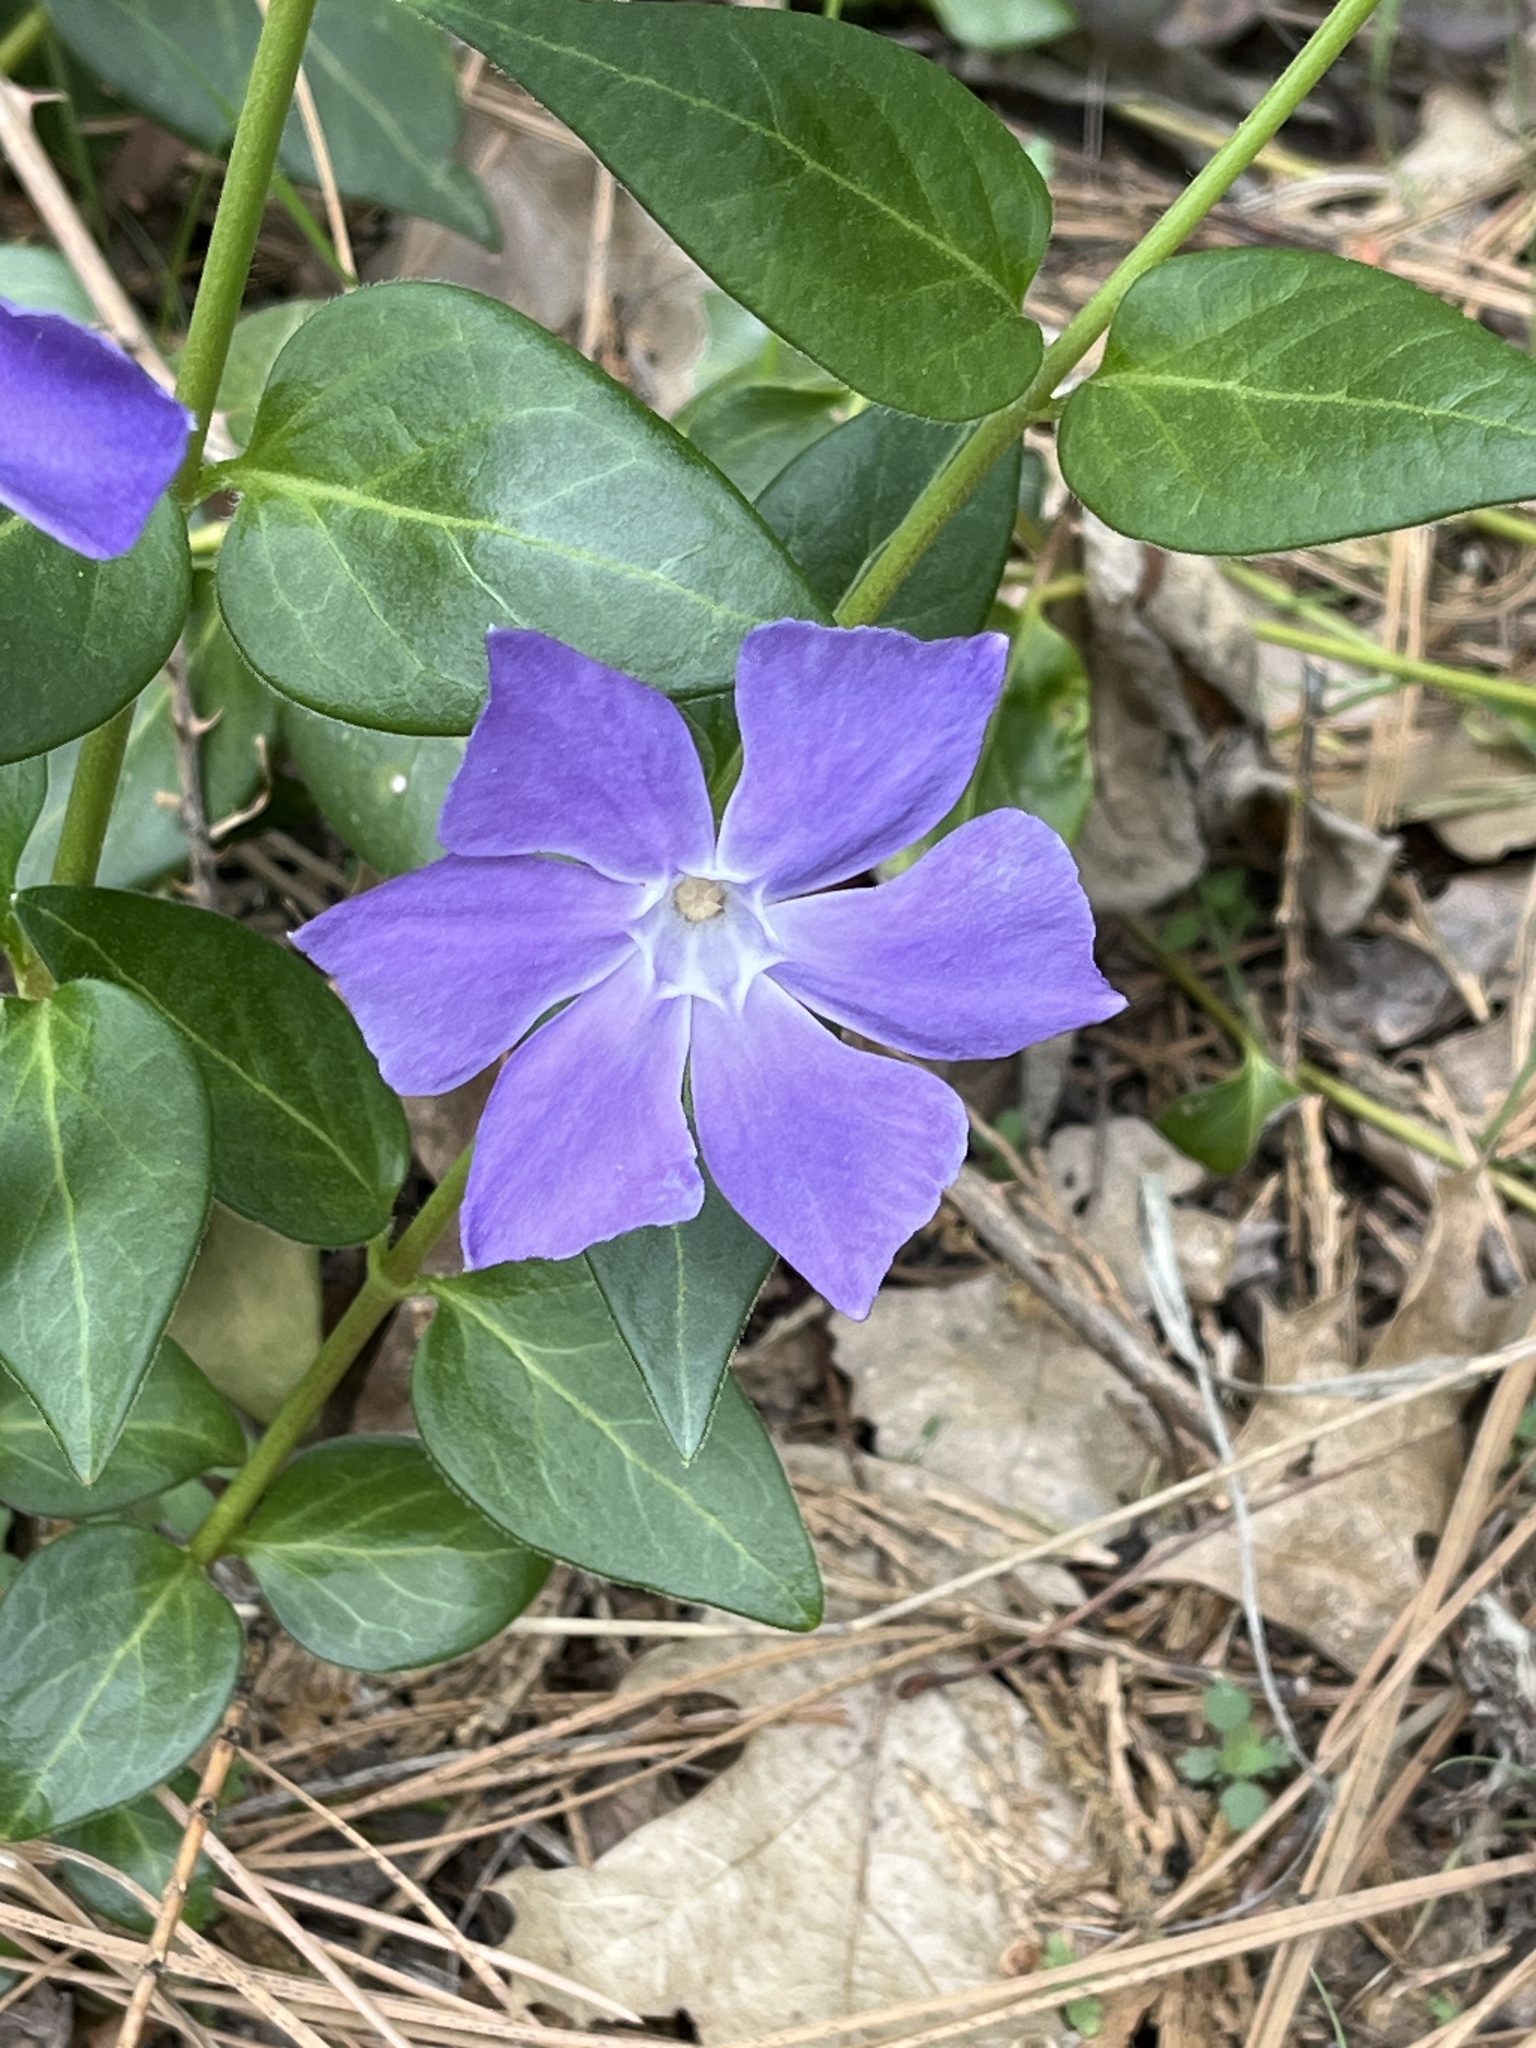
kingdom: Plantae
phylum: Tracheophyta
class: Magnoliopsida
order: Gentianales
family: Apocynaceae
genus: Vinca
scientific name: Vinca major
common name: Greater periwinkle
